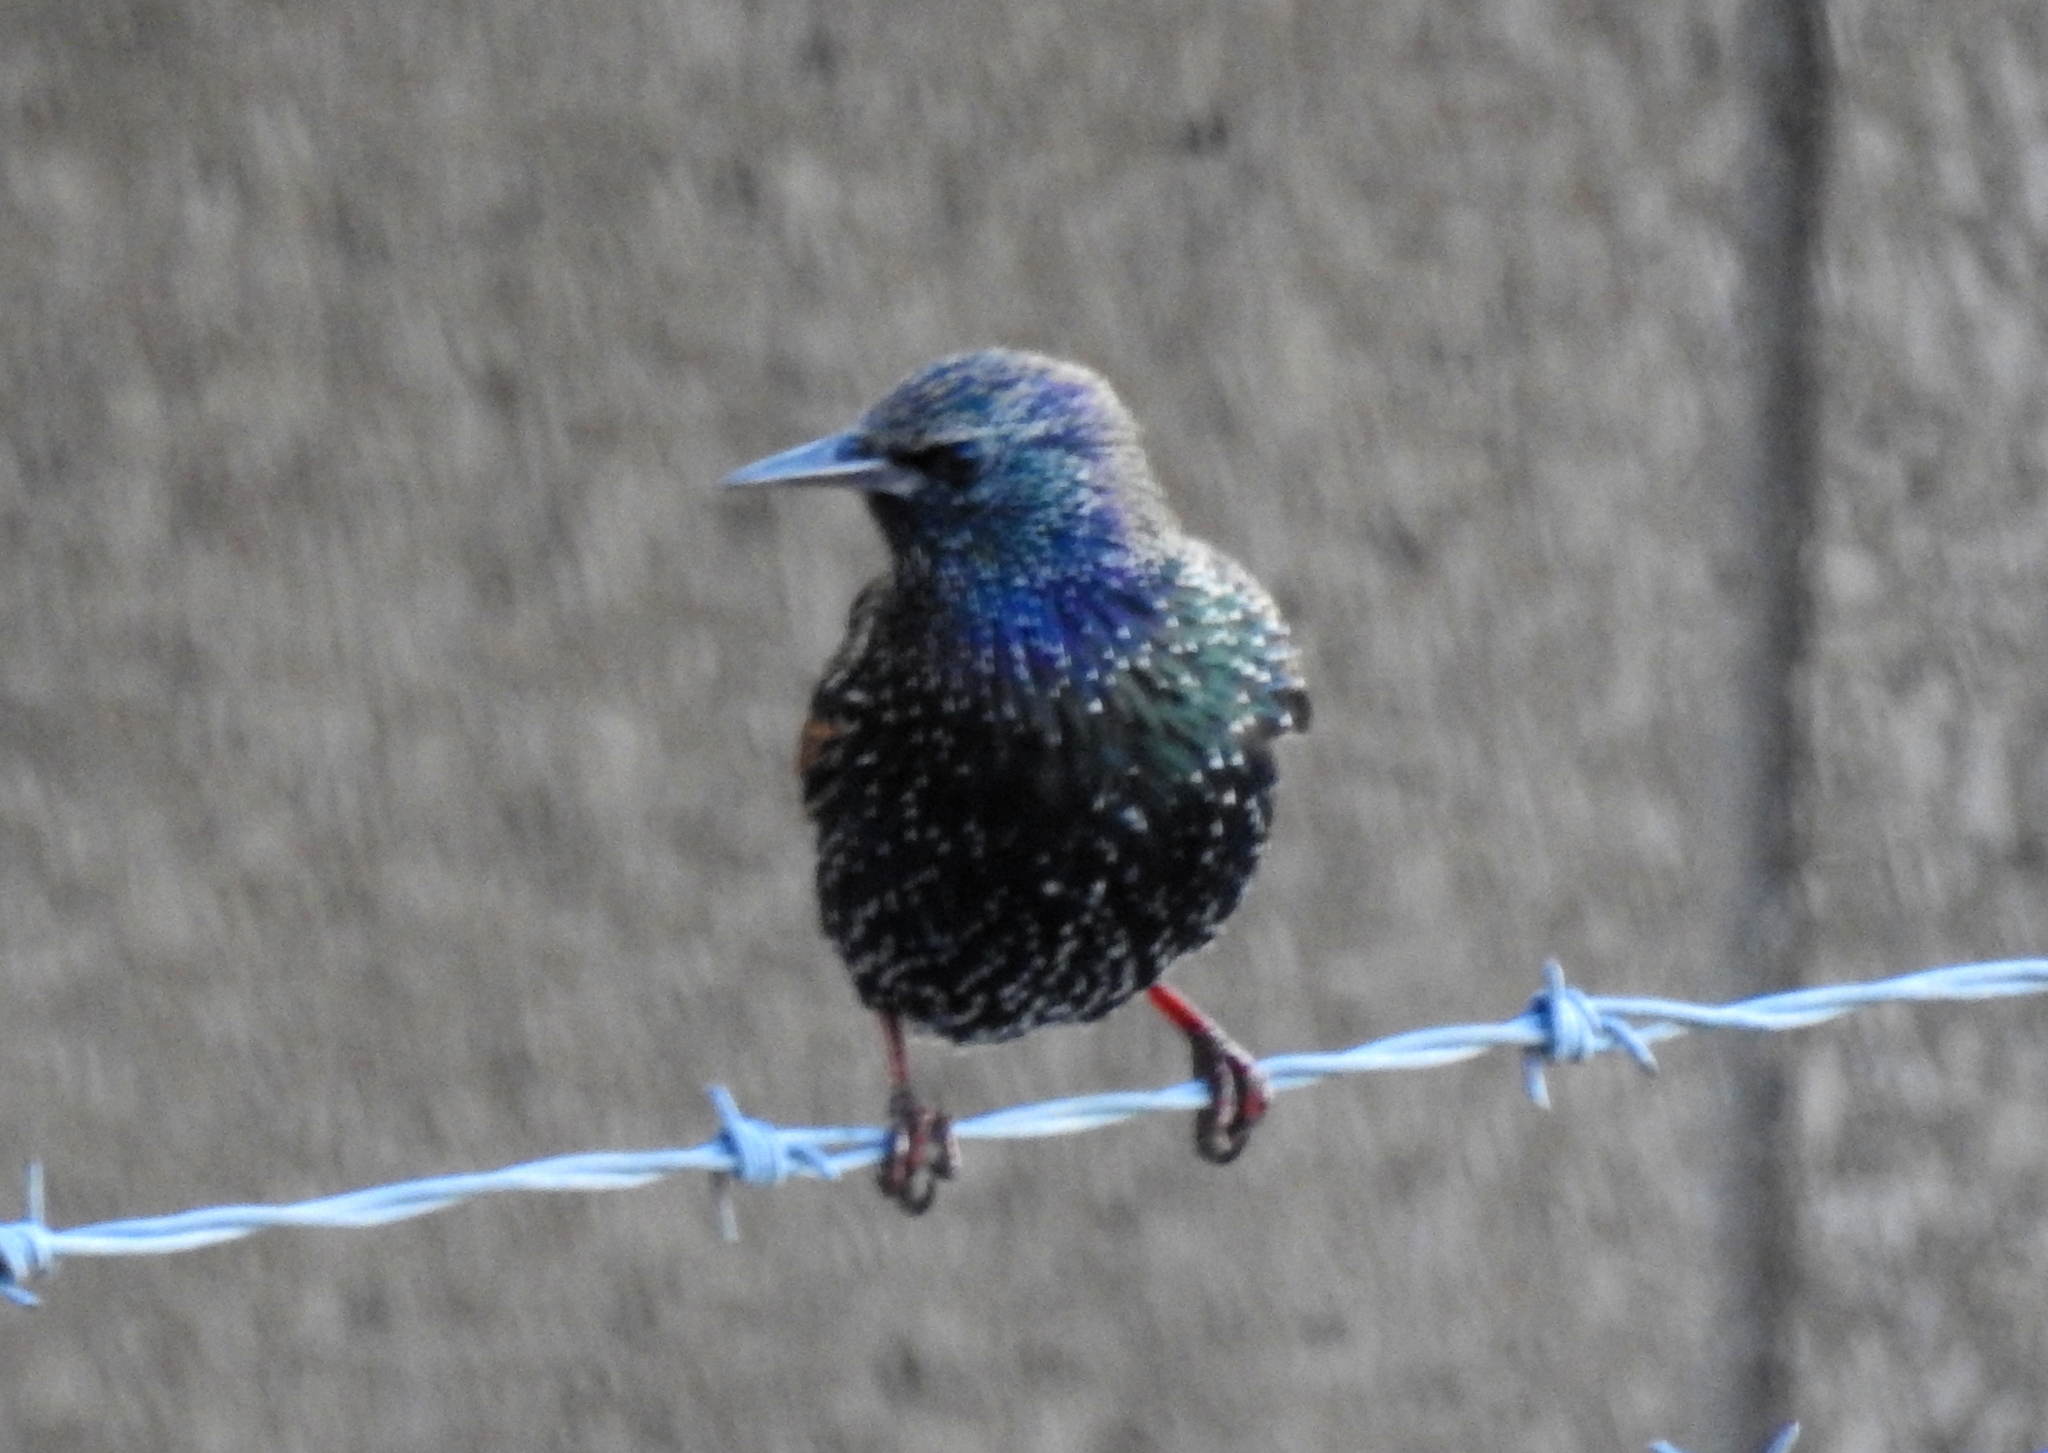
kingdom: Animalia
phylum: Chordata
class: Aves
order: Passeriformes
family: Sturnidae
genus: Sturnus
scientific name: Sturnus vulgaris
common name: Common starling
